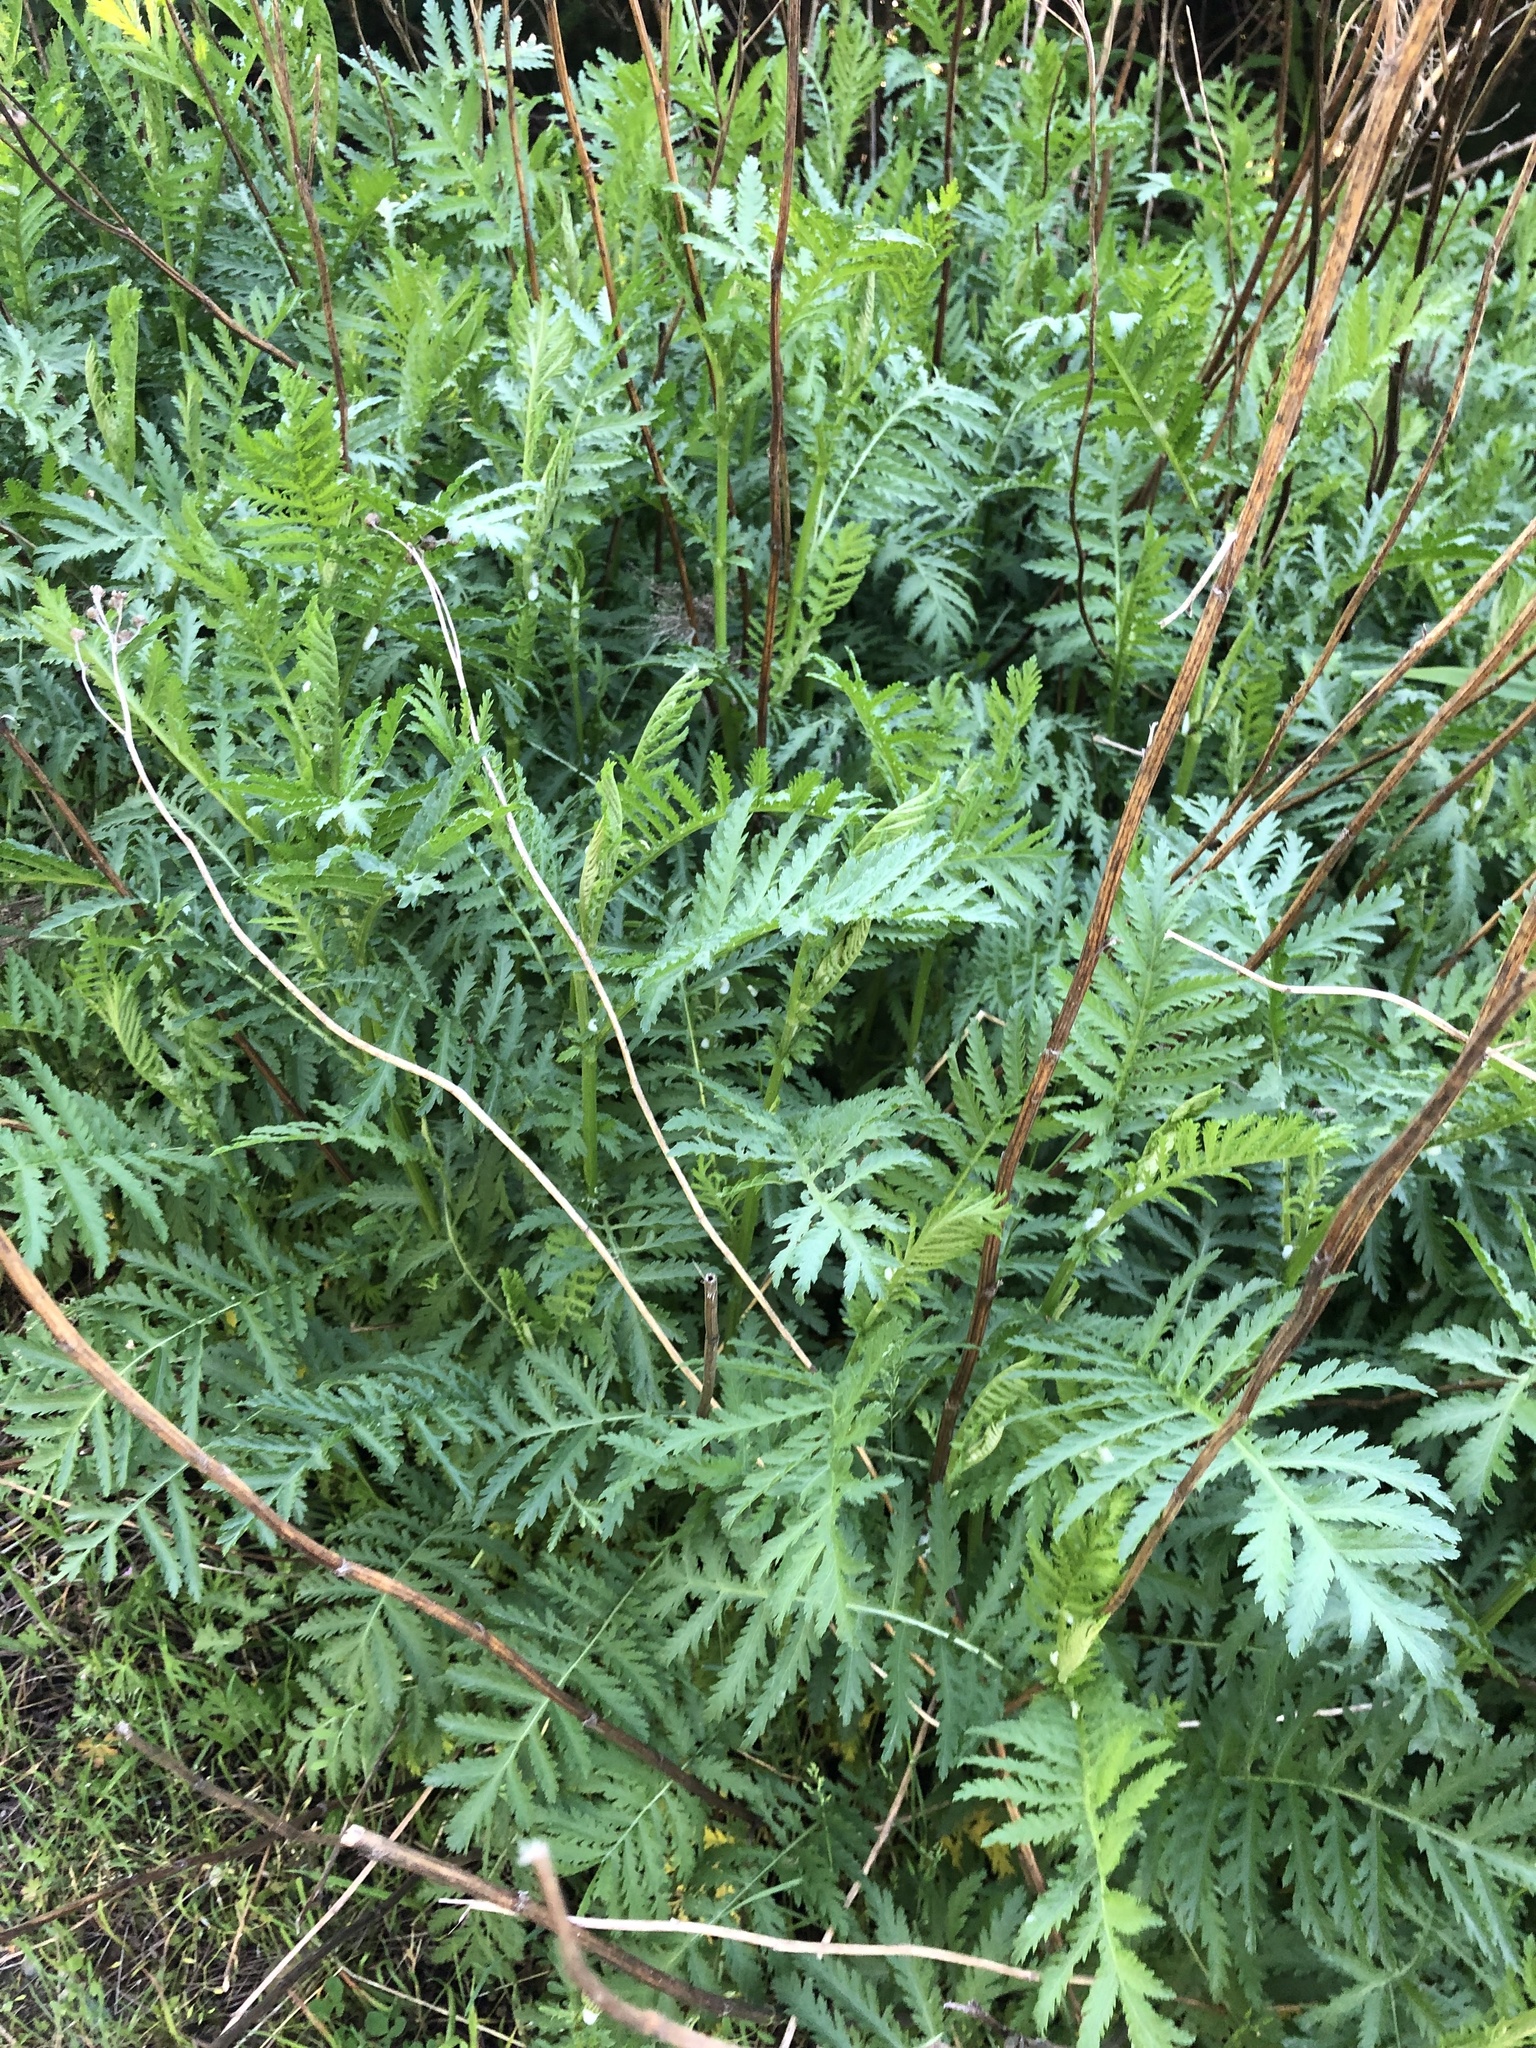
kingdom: Plantae
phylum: Tracheophyta
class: Magnoliopsida
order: Asterales
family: Asteraceae
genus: Tanacetum
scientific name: Tanacetum vulgare
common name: Common tansy
